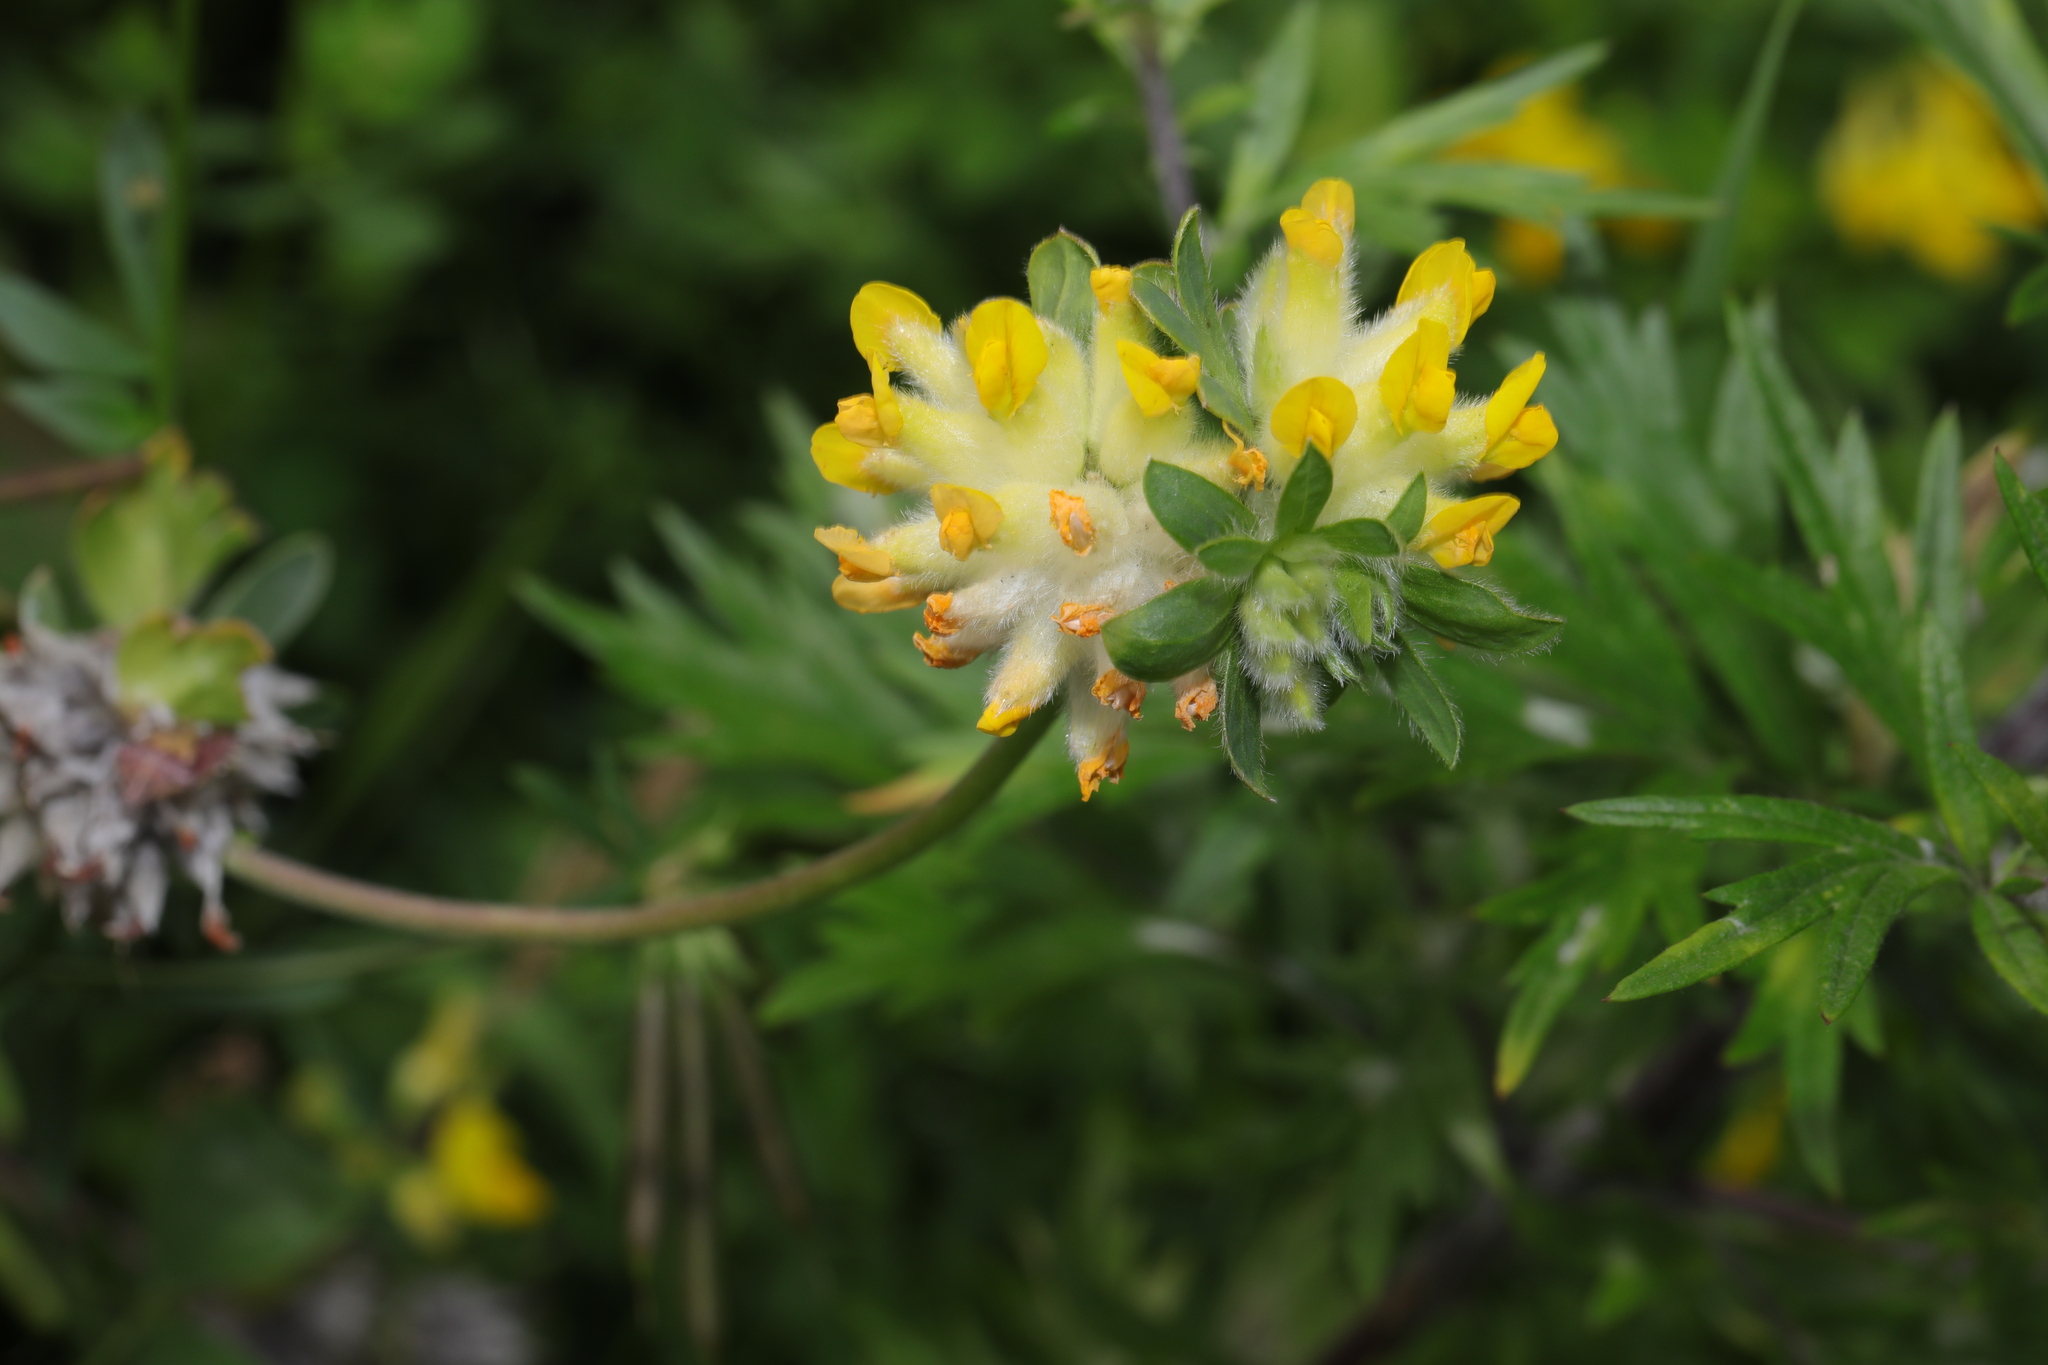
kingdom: Plantae
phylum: Tracheophyta
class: Magnoliopsida
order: Fabales
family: Fabaceae
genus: Anthyllis
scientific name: Anthyllis vulneraria
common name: Kidney vetch
